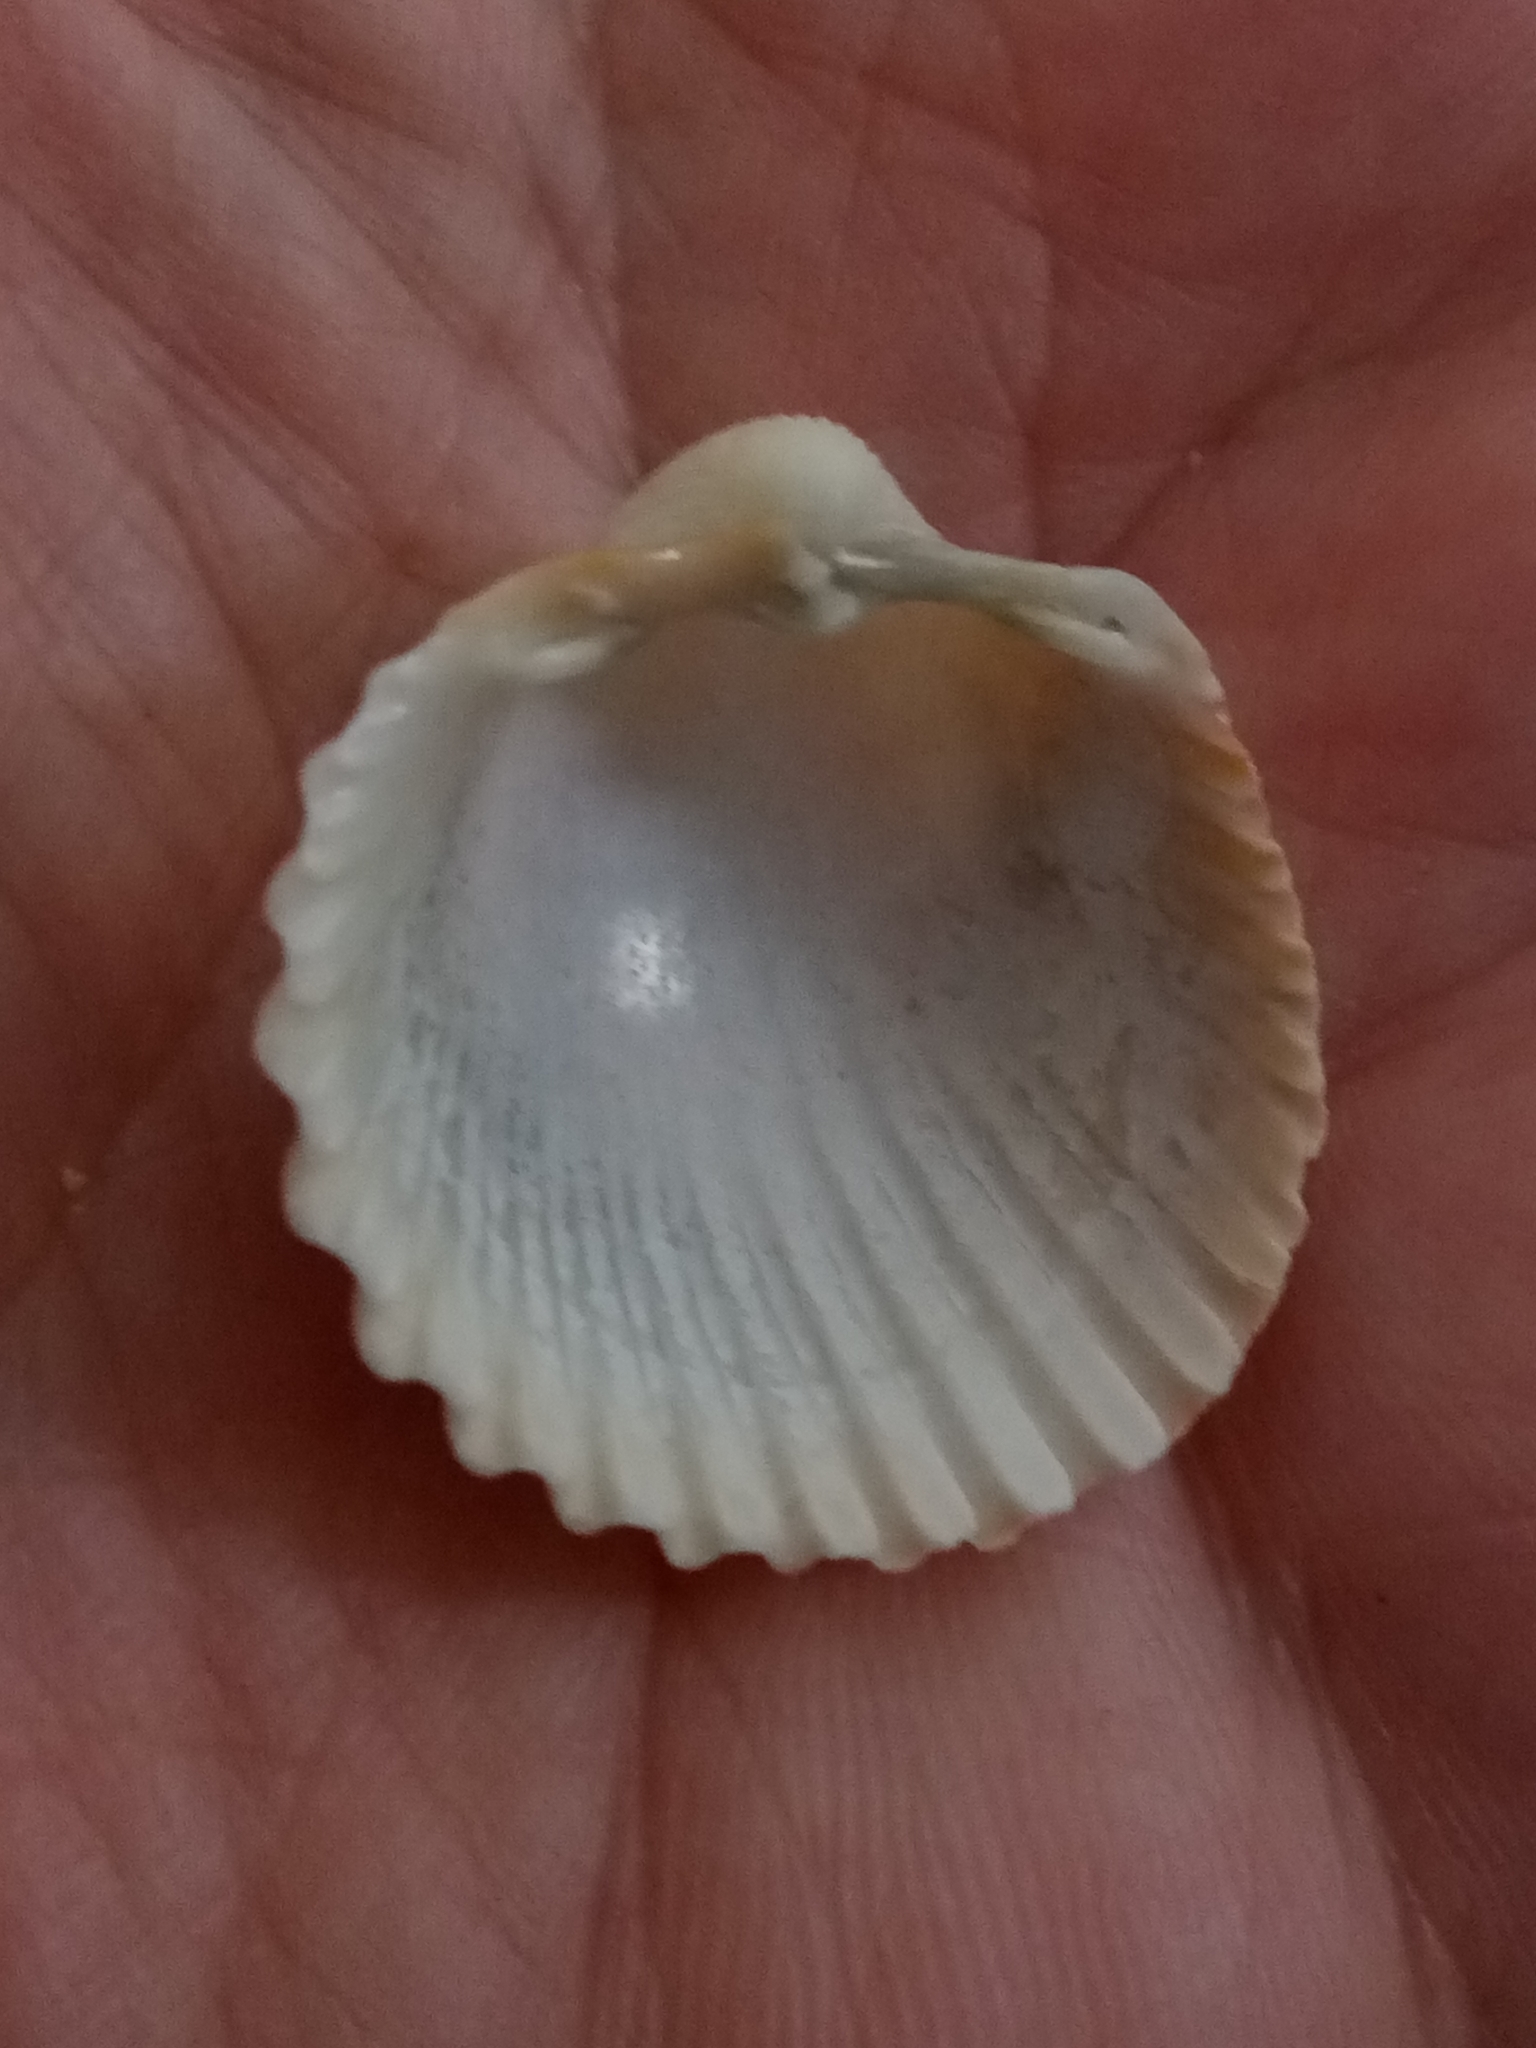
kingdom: Animalia
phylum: Mollusca
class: Bivalvia
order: Cardiida
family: Cardiidae
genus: Acanthocardia
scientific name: Acanthocardia tuberculata
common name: Rough cockle
